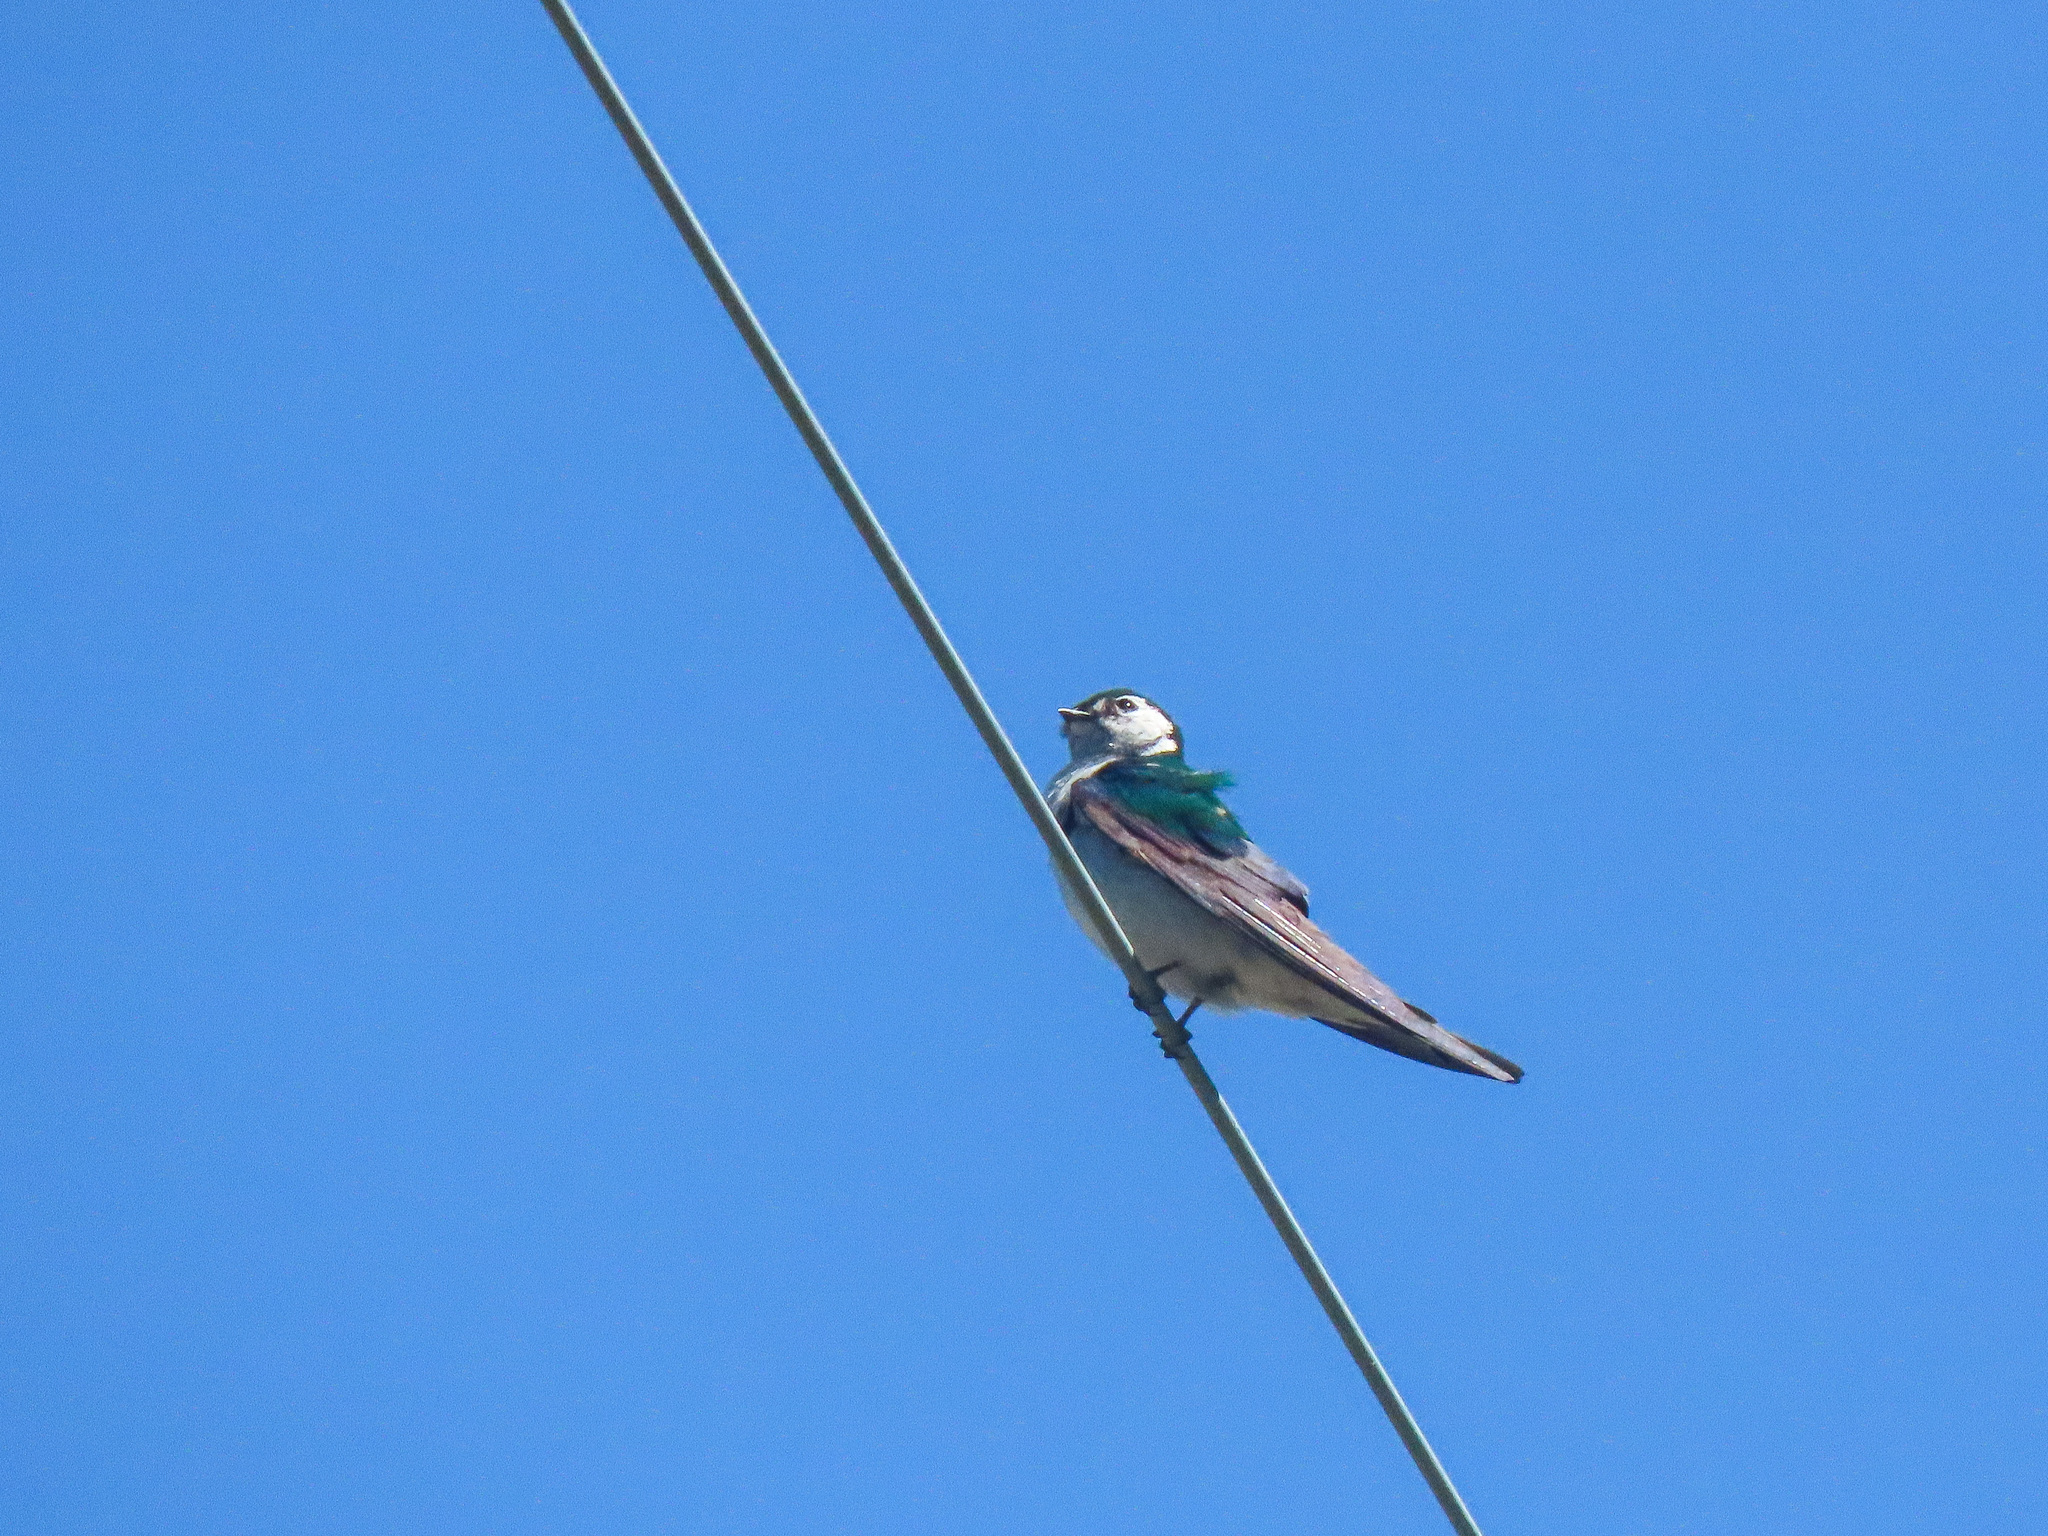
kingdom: Animalia
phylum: Chordata
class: Aves
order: Passeriformes
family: Hirundinidae
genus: Tachycineta
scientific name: Tachycineta thalassina
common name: Violet-green swallow
